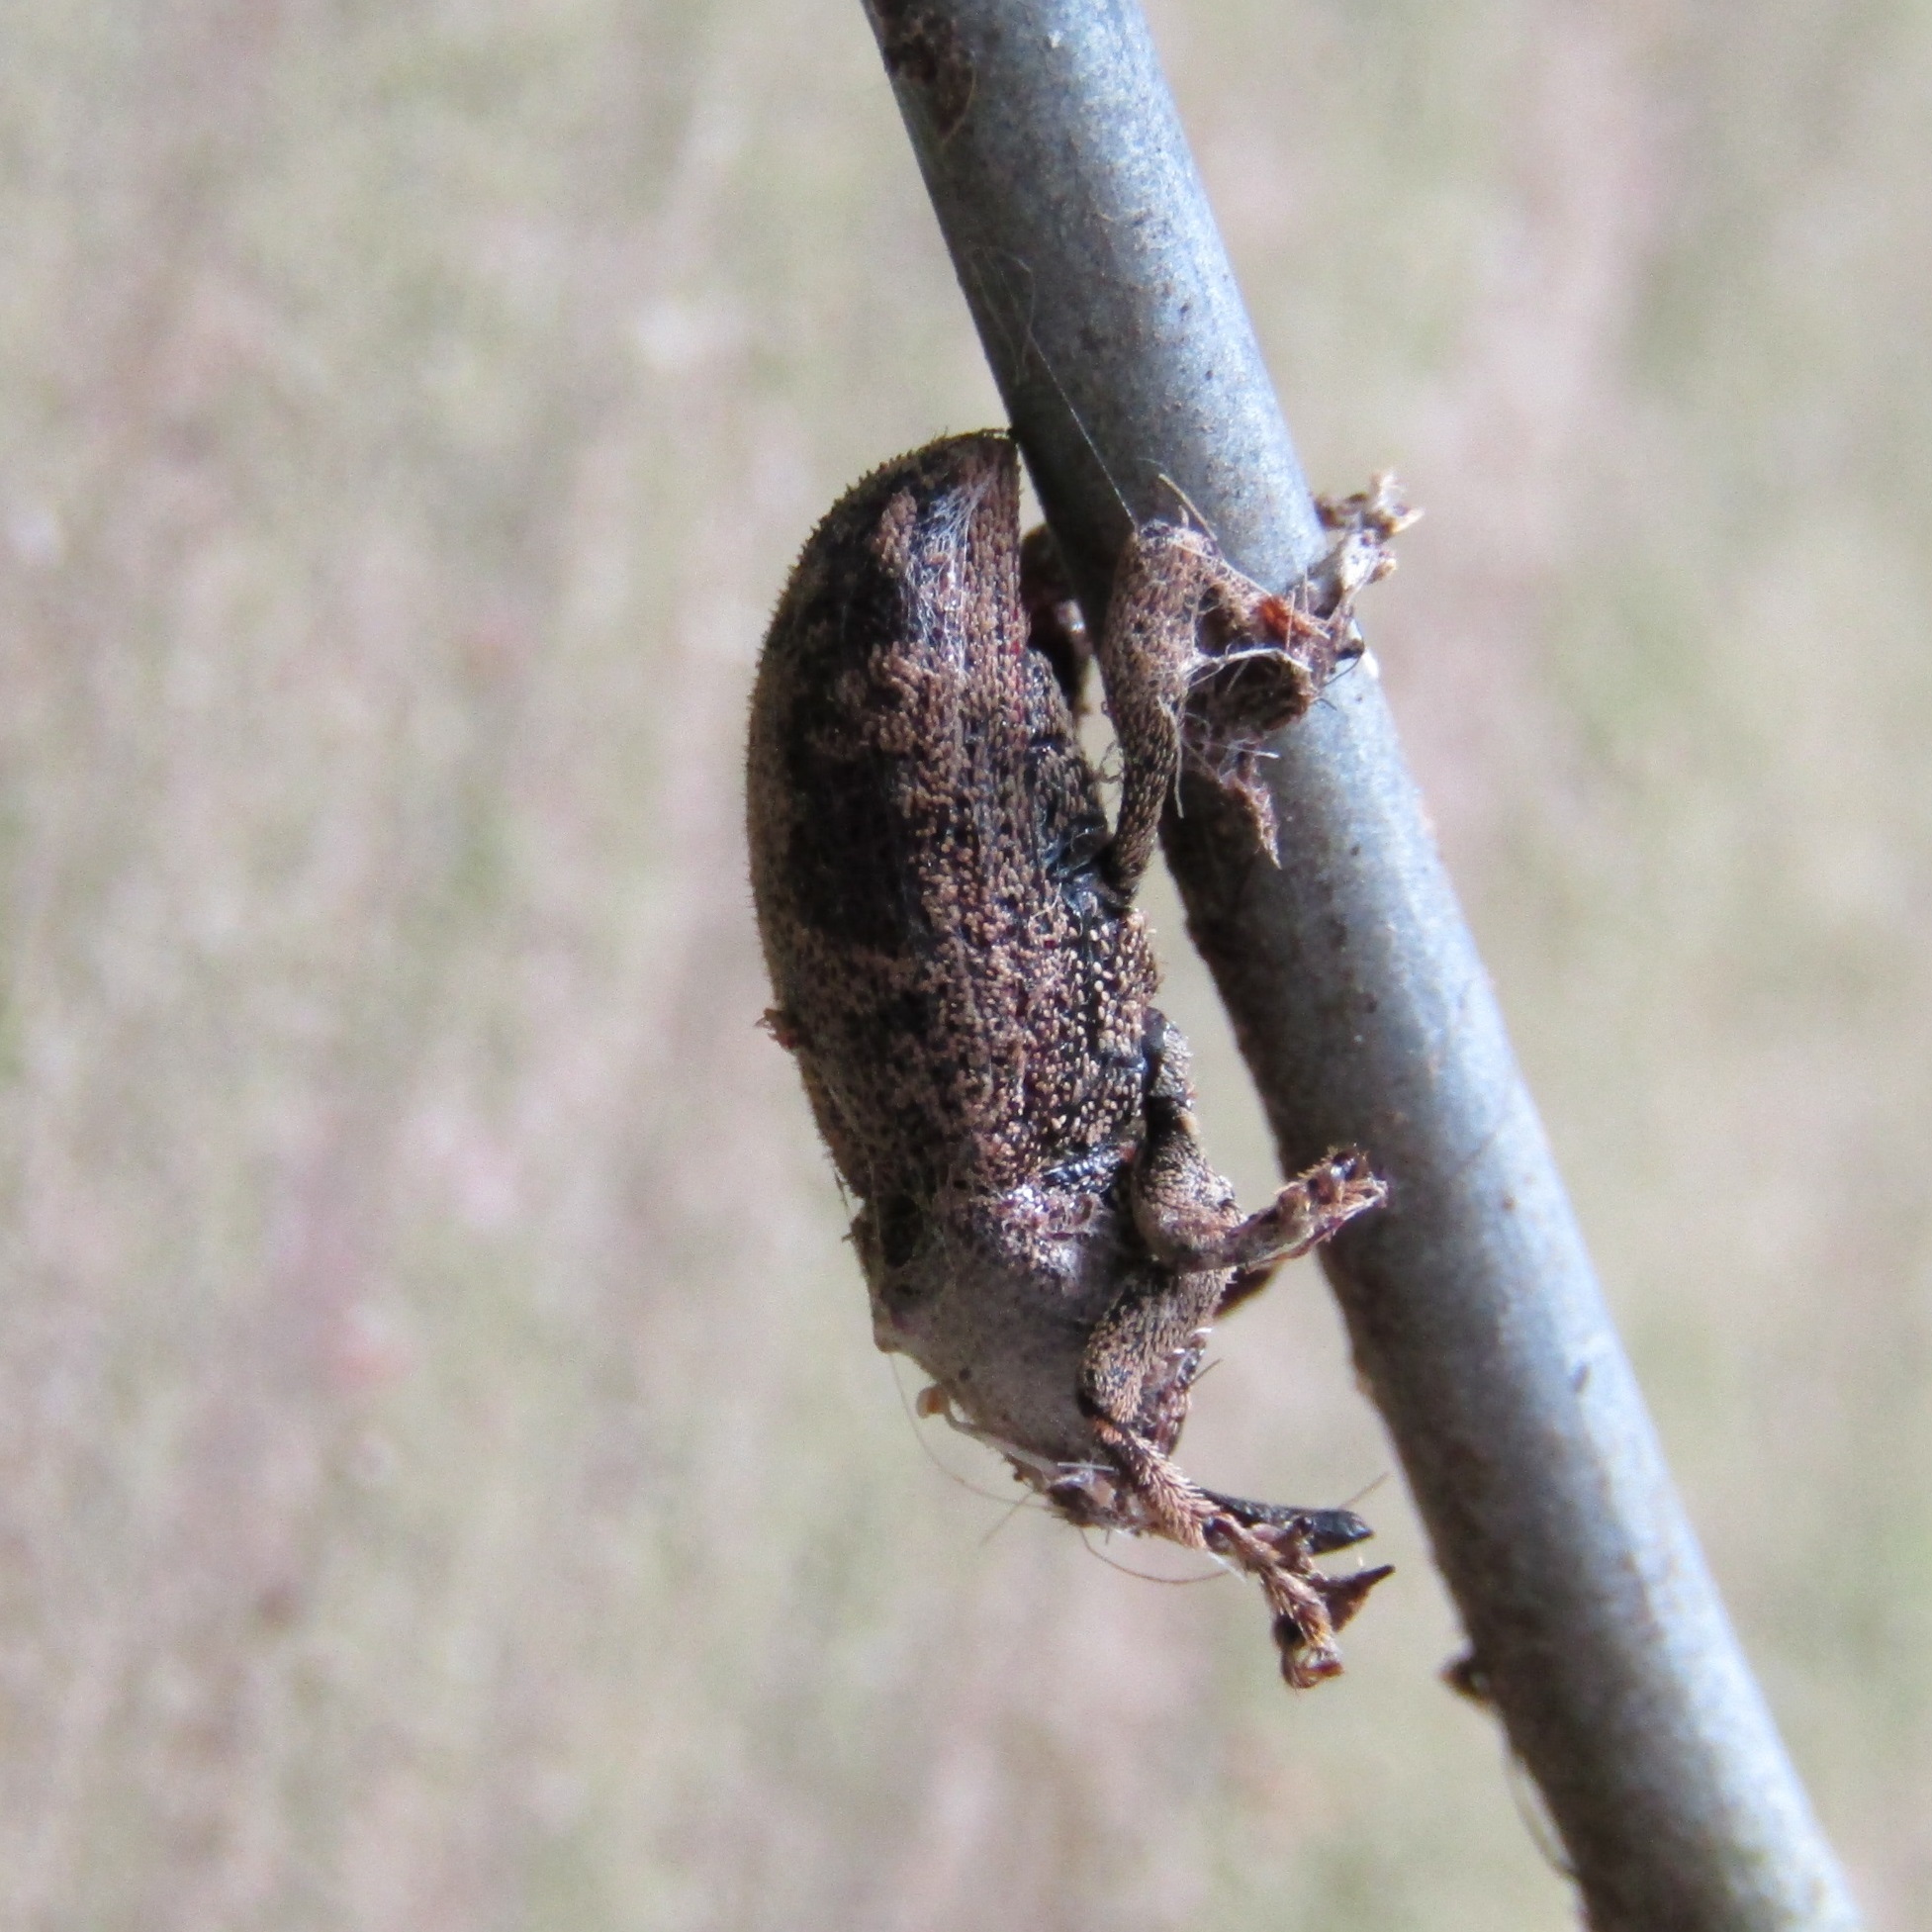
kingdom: Animalia
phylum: Arthropoda
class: Insecta
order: Coleoptera
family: Curculionidae
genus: Strongylopterus
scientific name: Strongylopterus hylopioides
